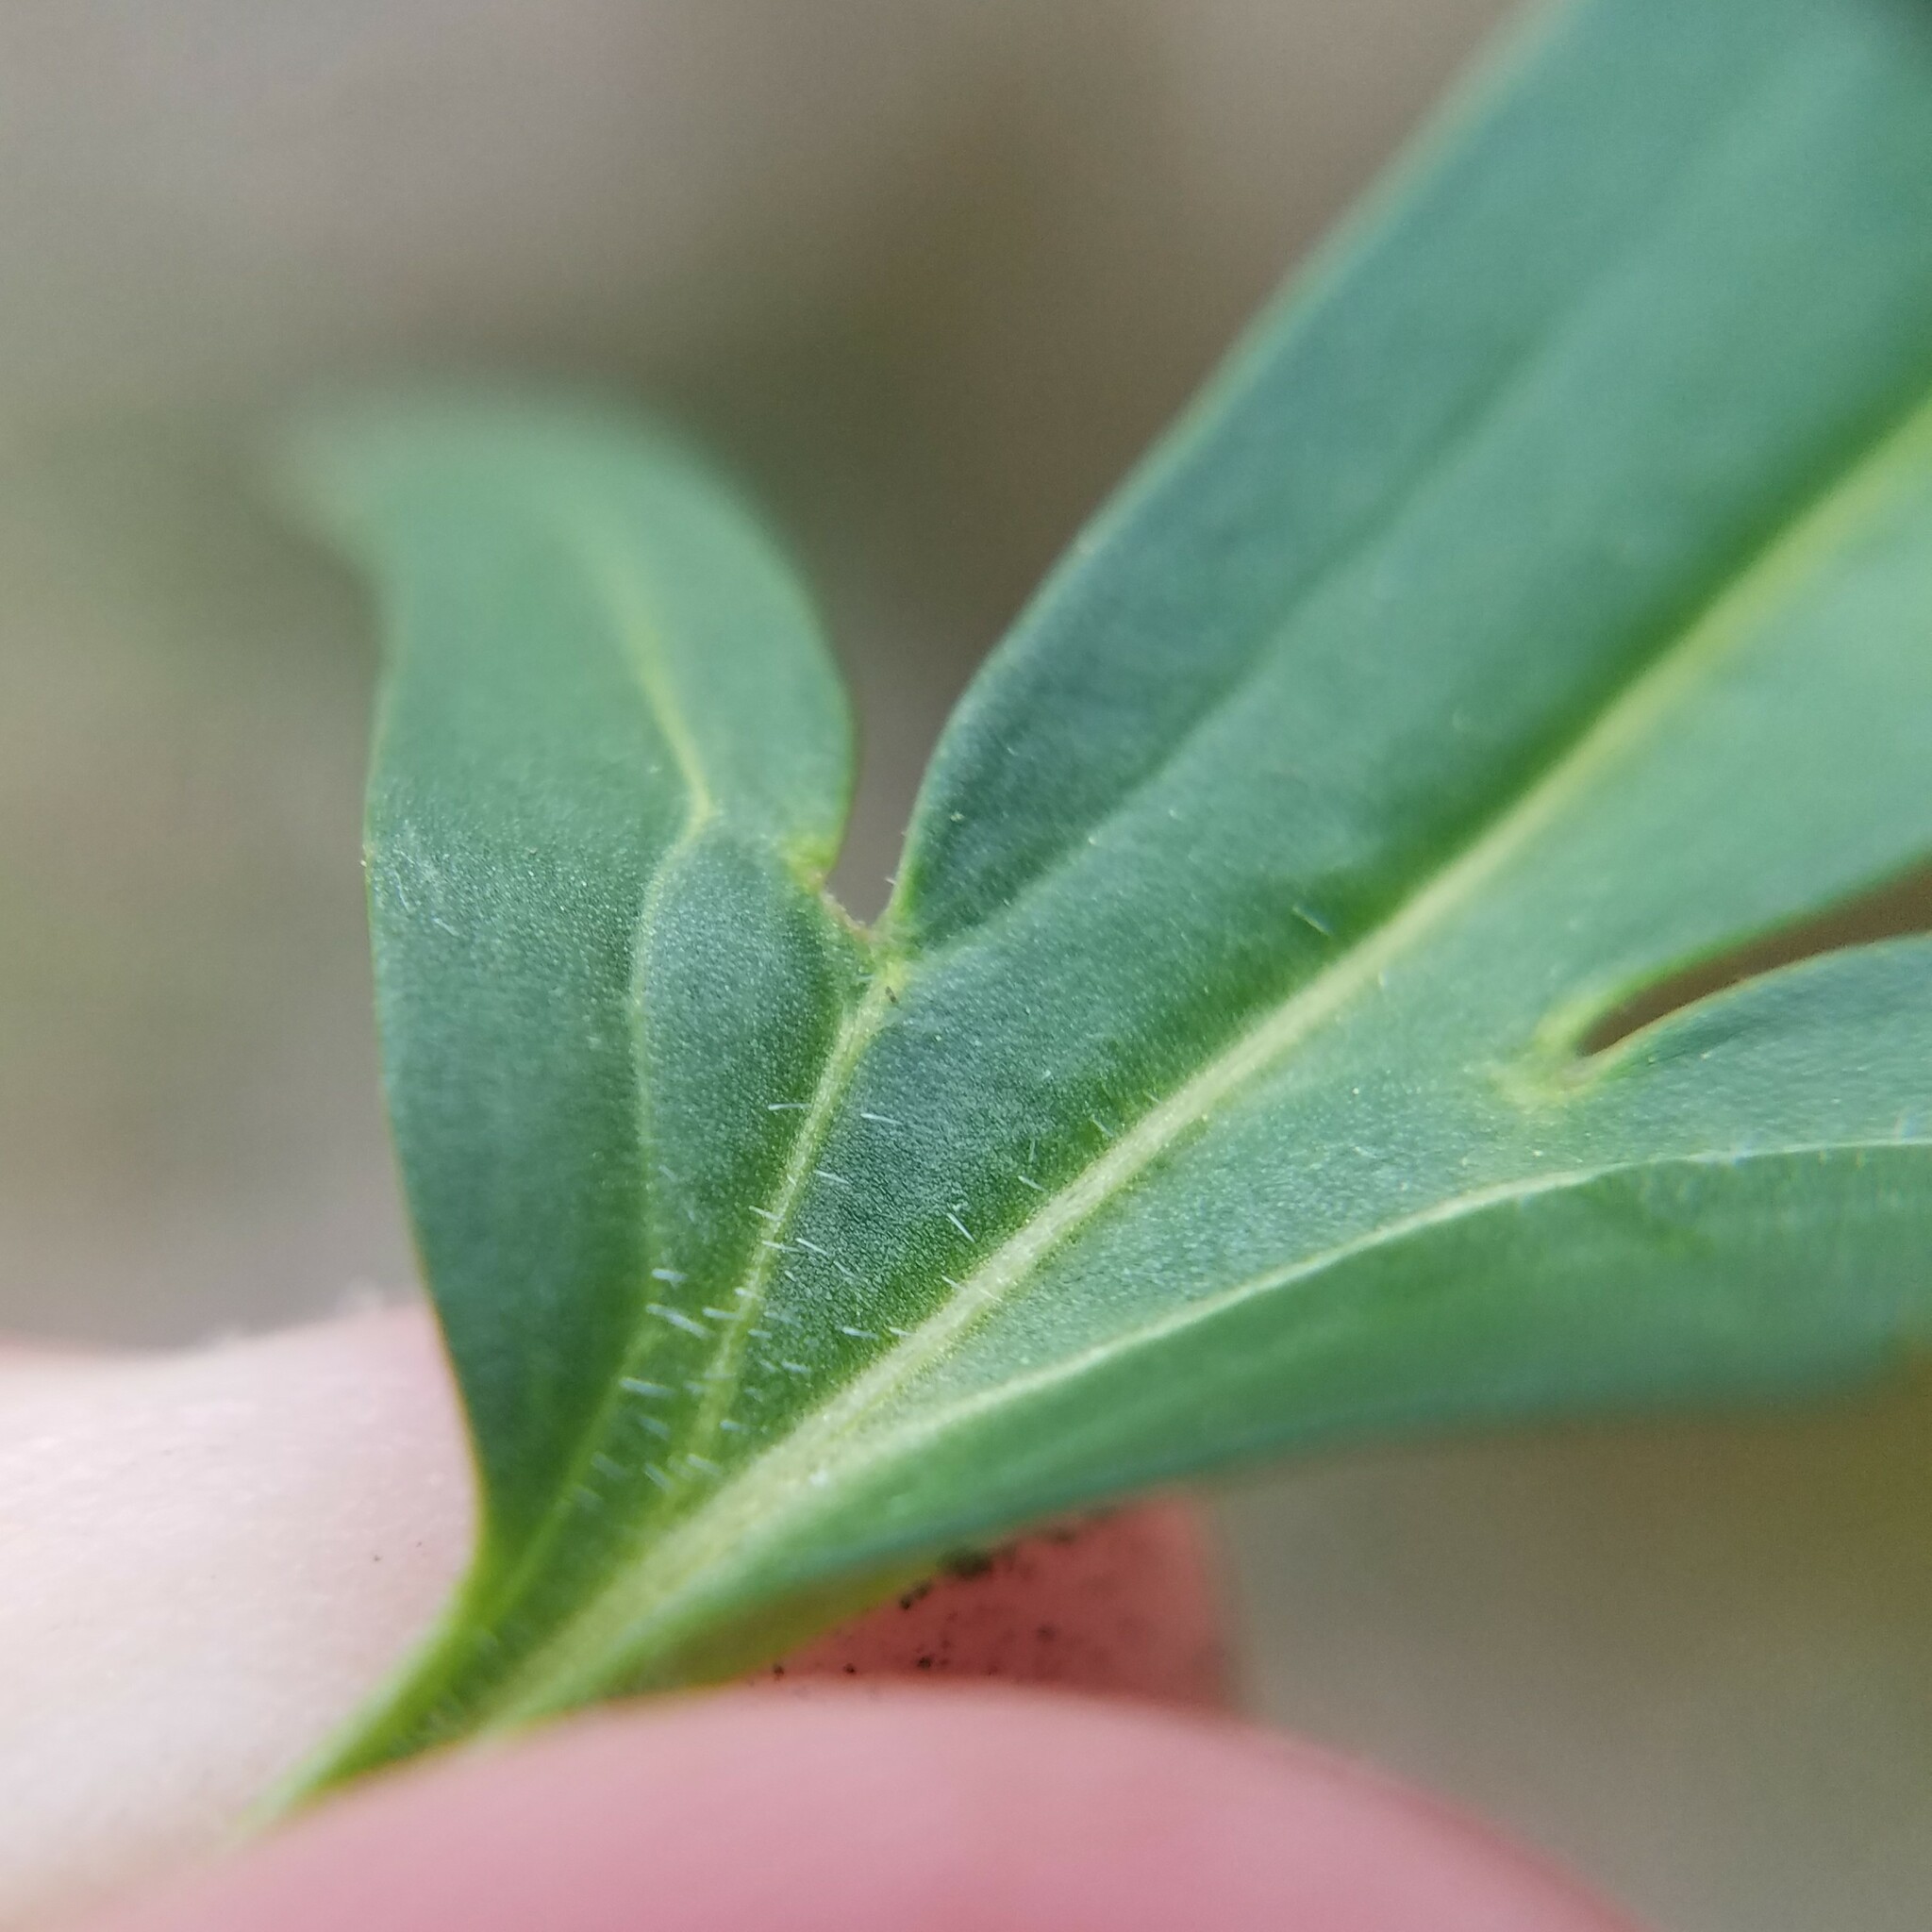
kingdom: Plantae
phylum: Tracheophyta
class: Magnoliopsida
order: Brassicales
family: Brassicaceae
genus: Cardamine
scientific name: Cardamine concatenata
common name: Cut-leaf toothcup
